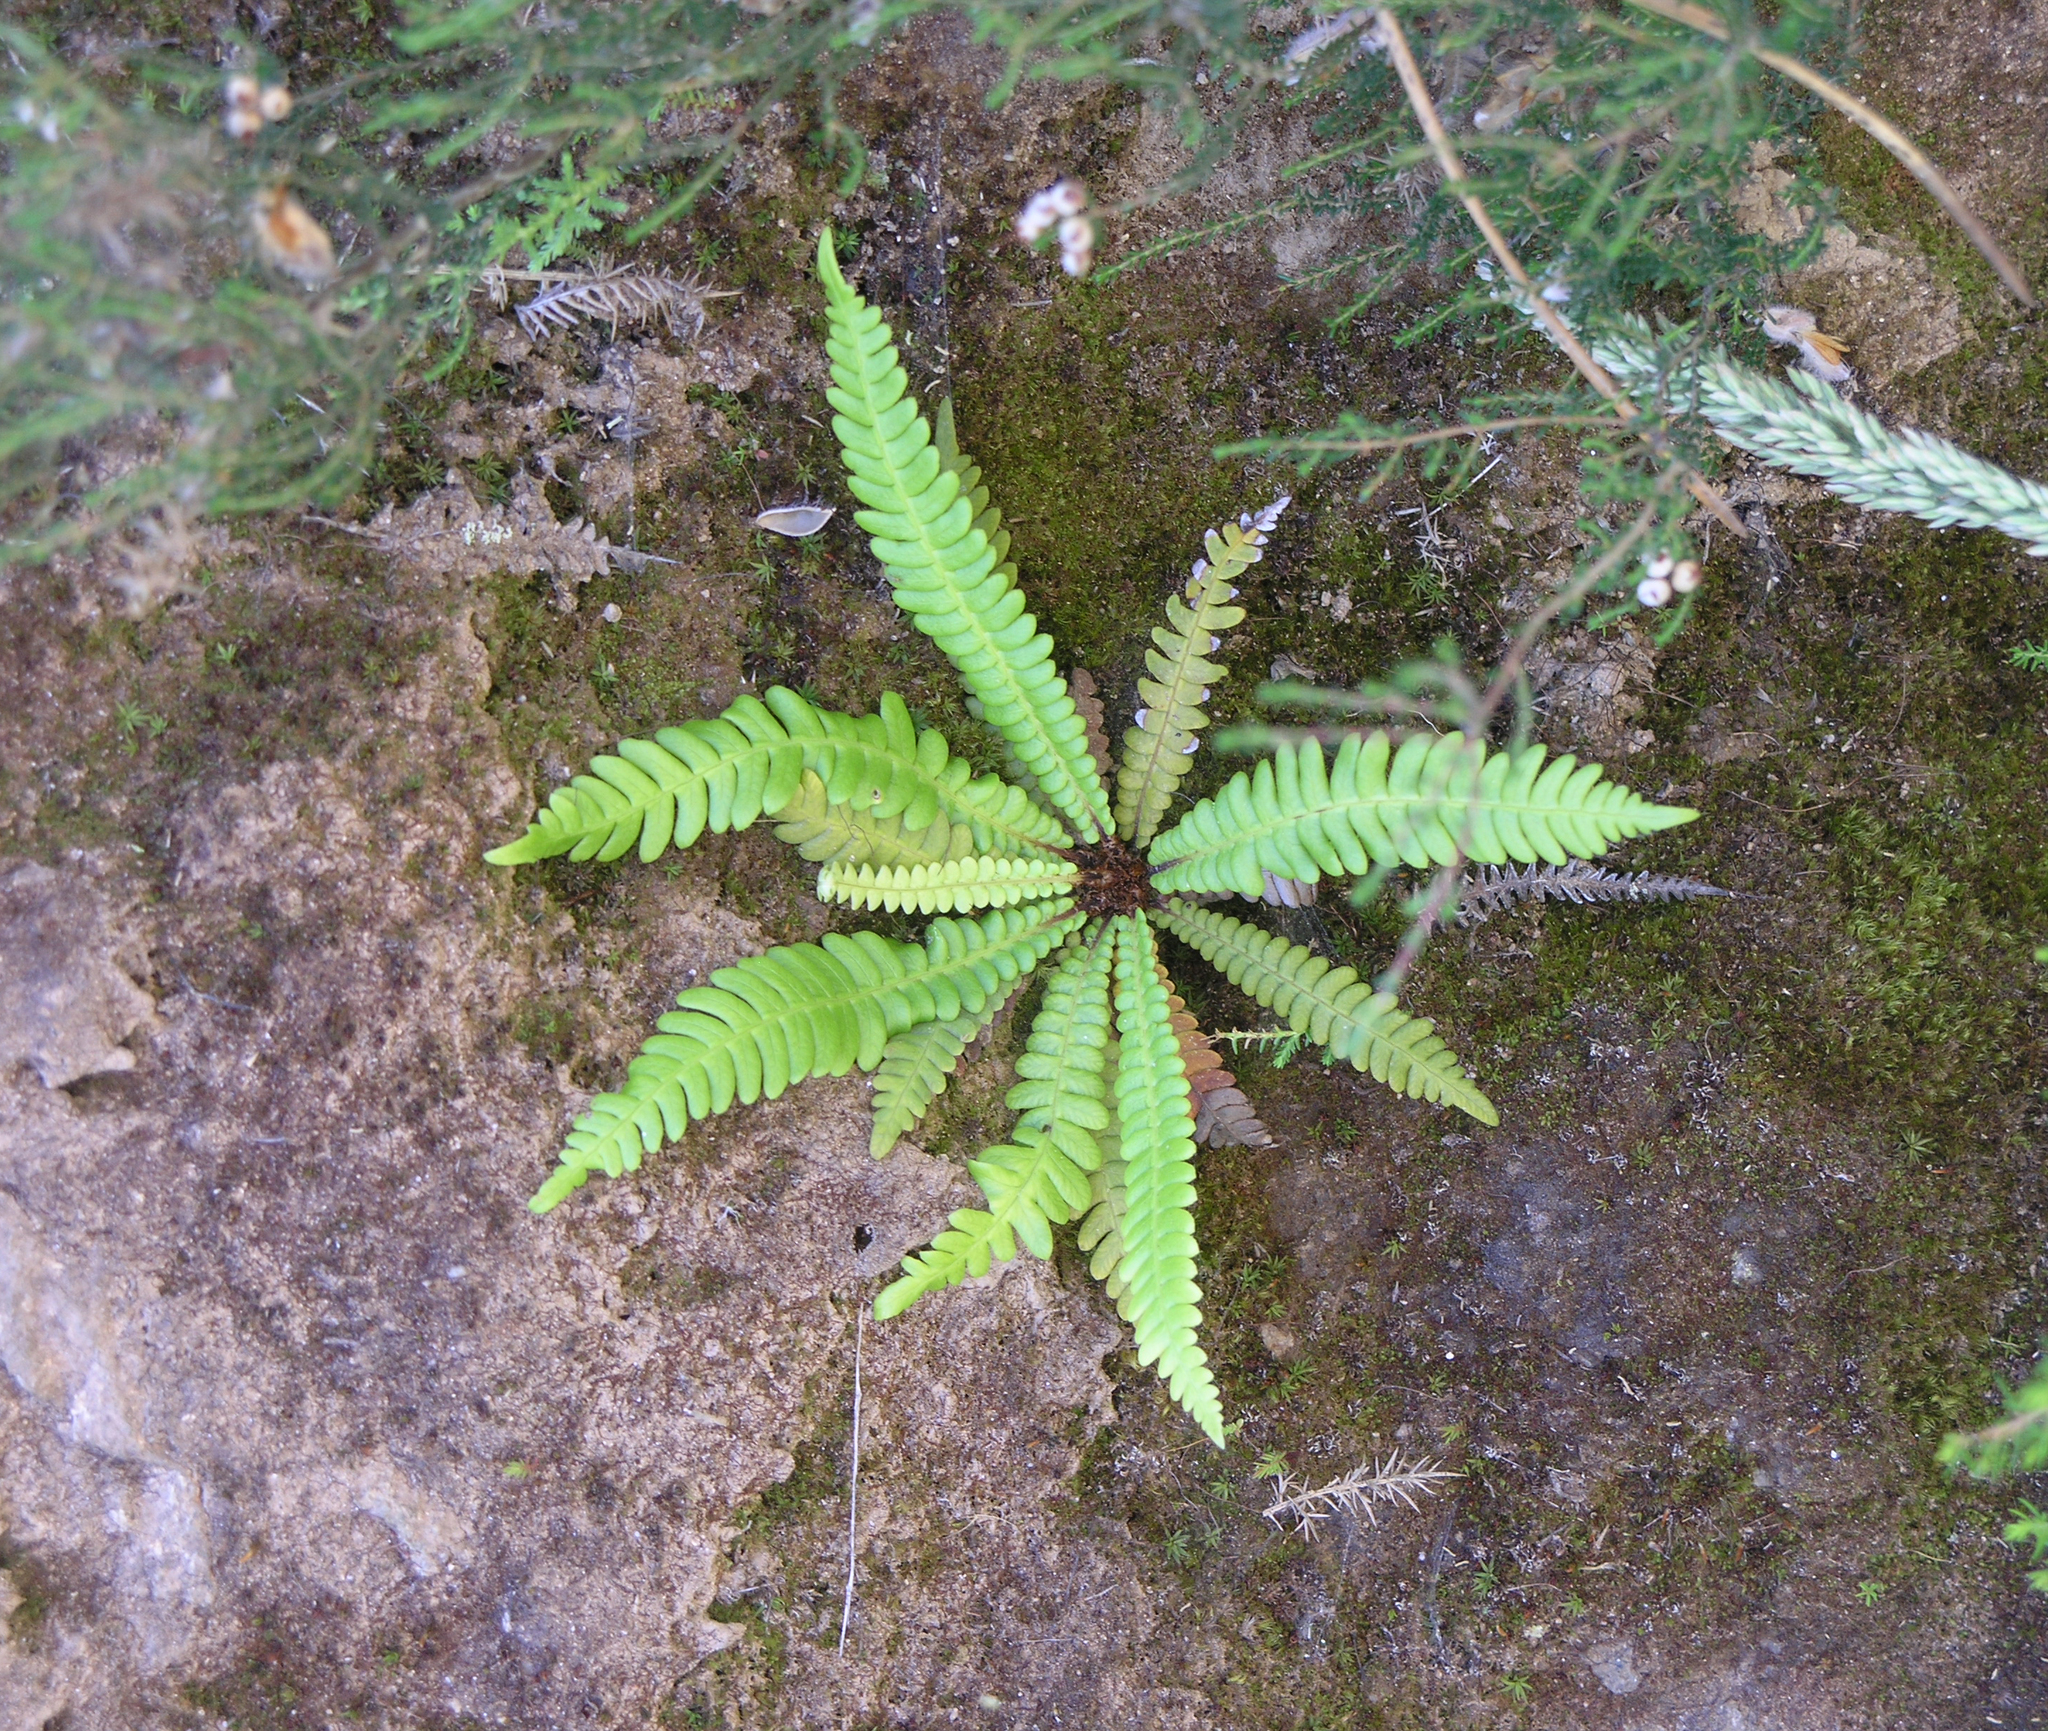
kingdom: Plantae
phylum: Tracheophyta
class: Polypodiopsida
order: Polypodiales
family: Blechnaceae
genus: Struthiopteris
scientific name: Struthiopteris spicant
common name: Deer fern
